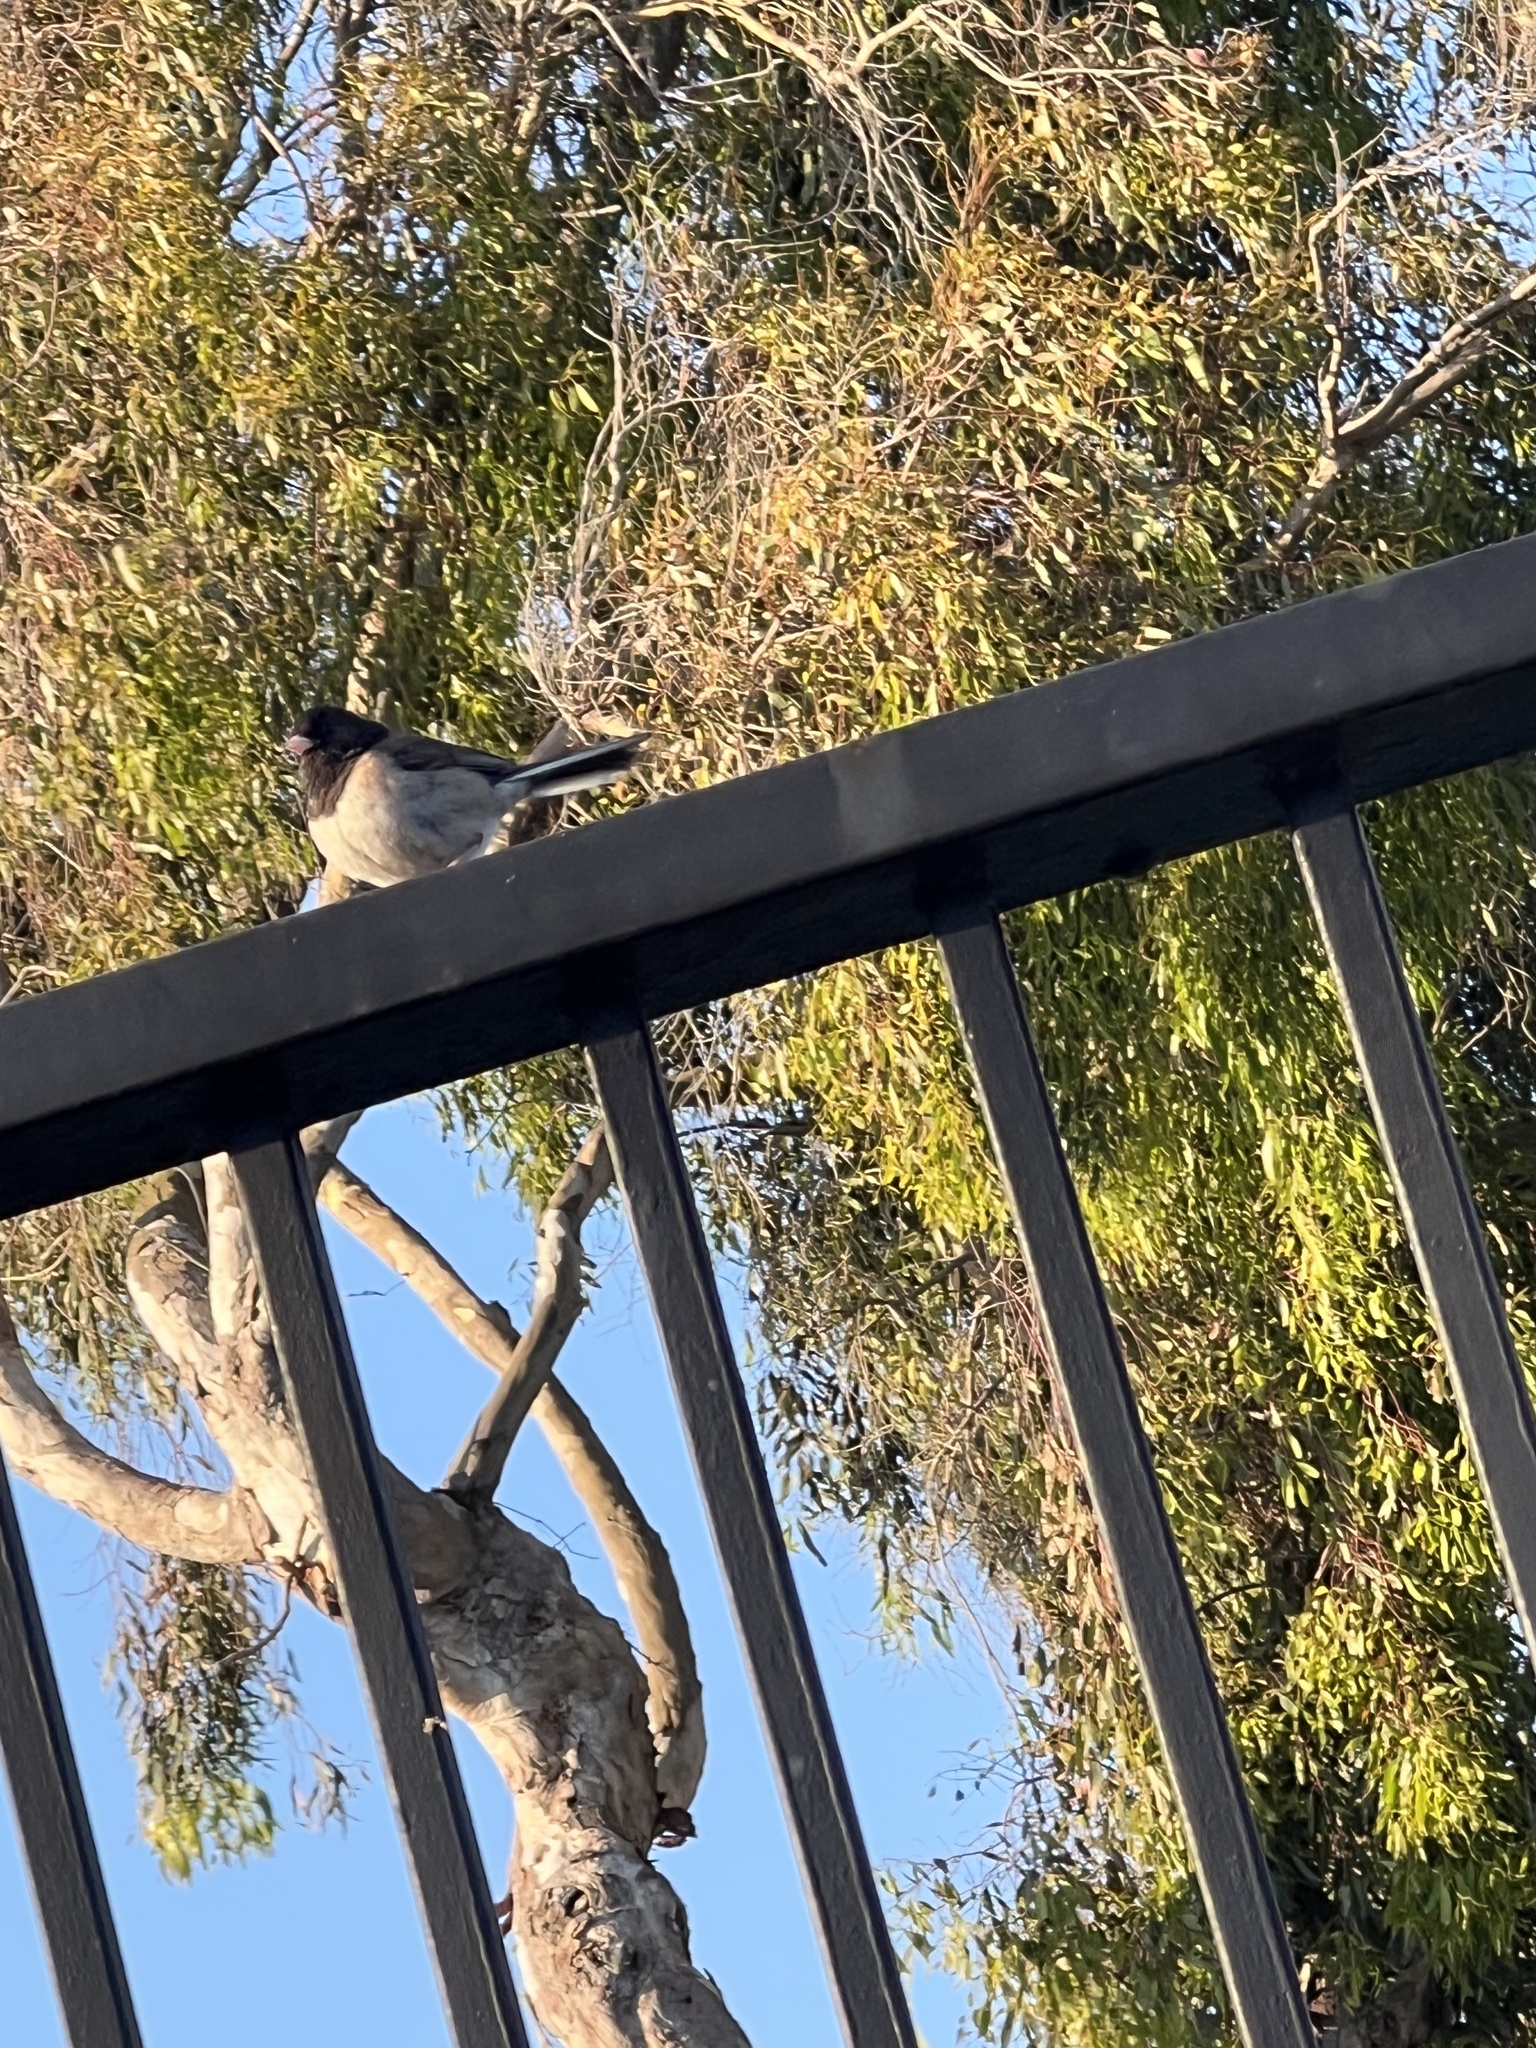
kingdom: Animalia
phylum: Chordata
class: Aves
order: Passeriformes
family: Passerellidae
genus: Junco
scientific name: Junco hyemalis
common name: Dark-eyed junco
